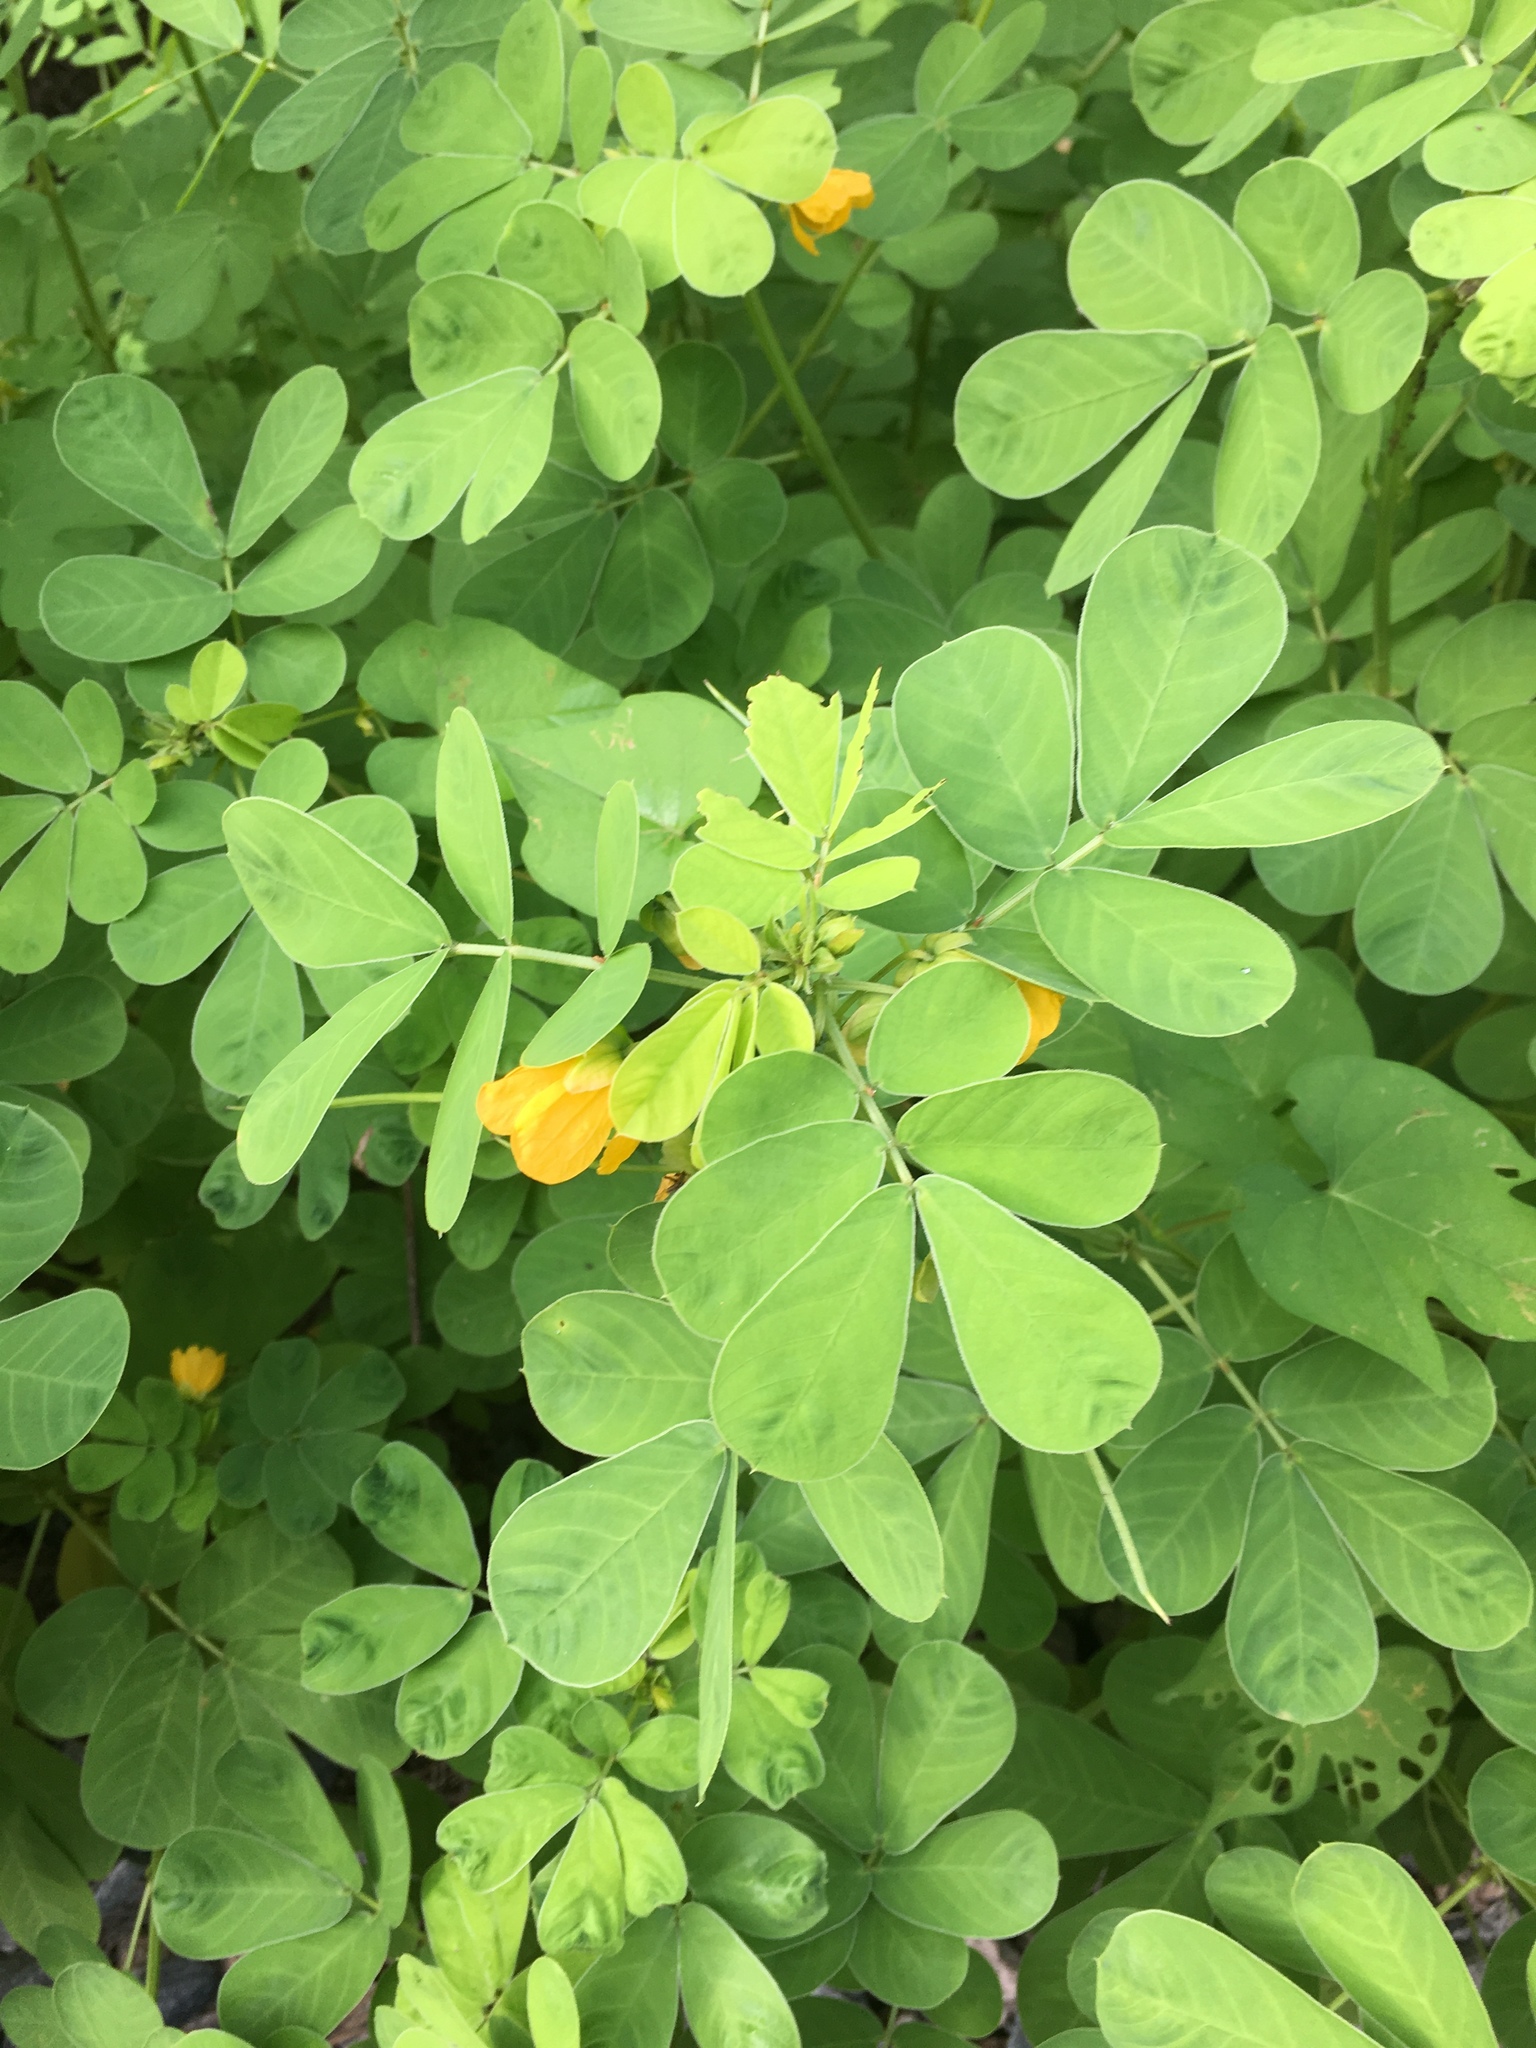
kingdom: Plantae
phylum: Tracheophyta
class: Magnoliopsida
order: Fabales
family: Fabaceae
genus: Senna
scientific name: Senna obtusifolia
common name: Java-bean
